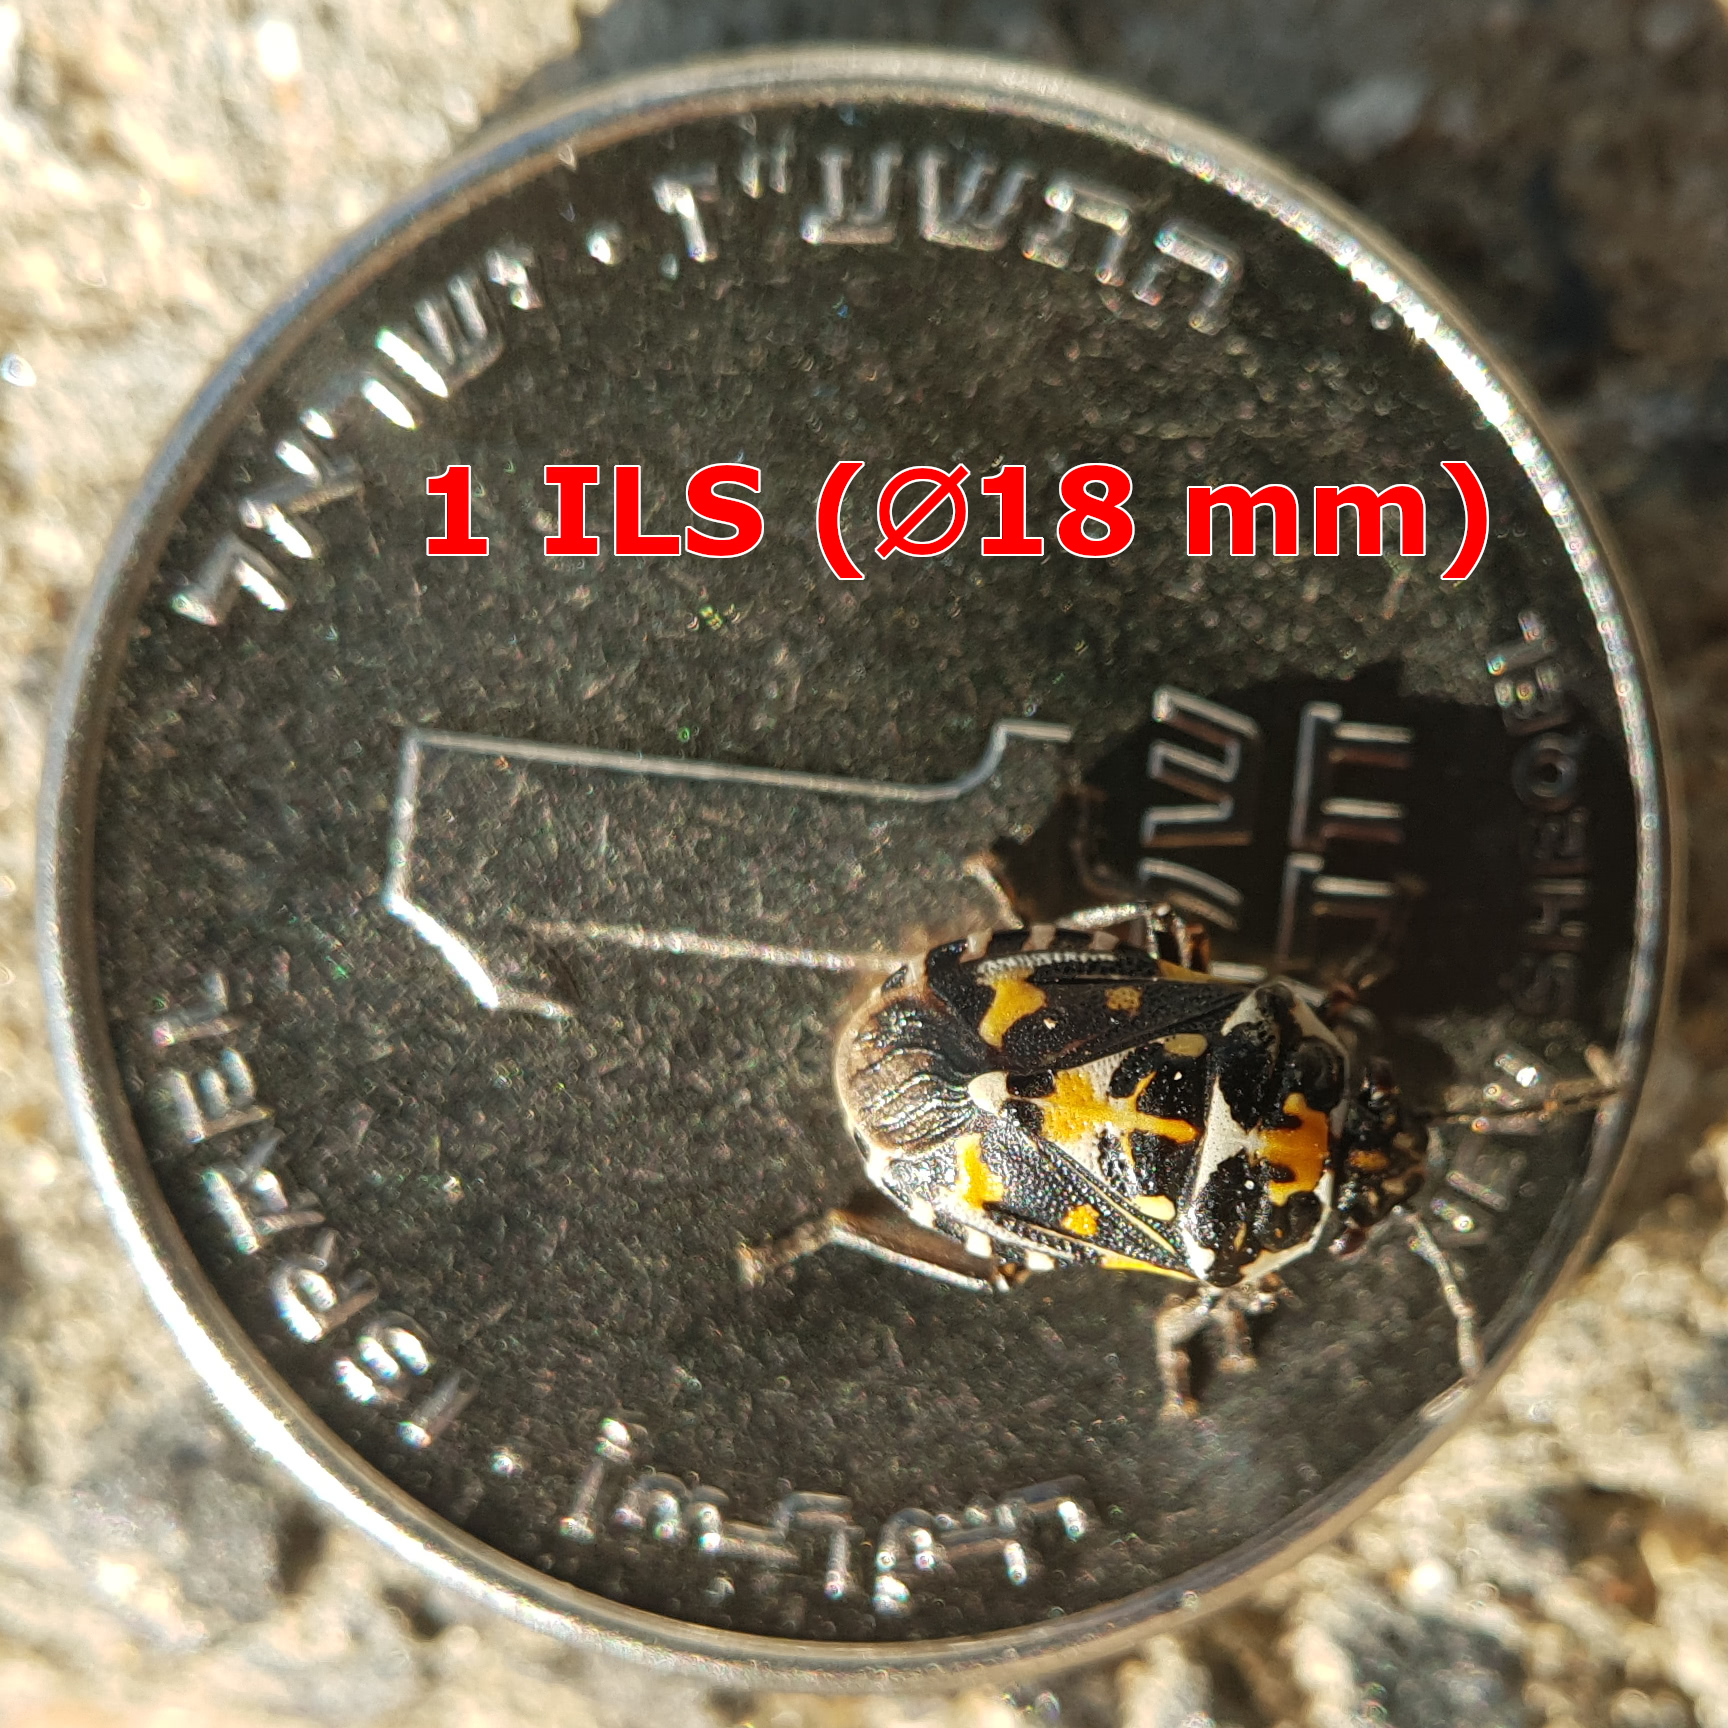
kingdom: Animalia
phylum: Arthropoda
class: Insecta
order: Hemiptera
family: Pentatomidae
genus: Stenozygum
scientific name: Stenozygum coloratum
